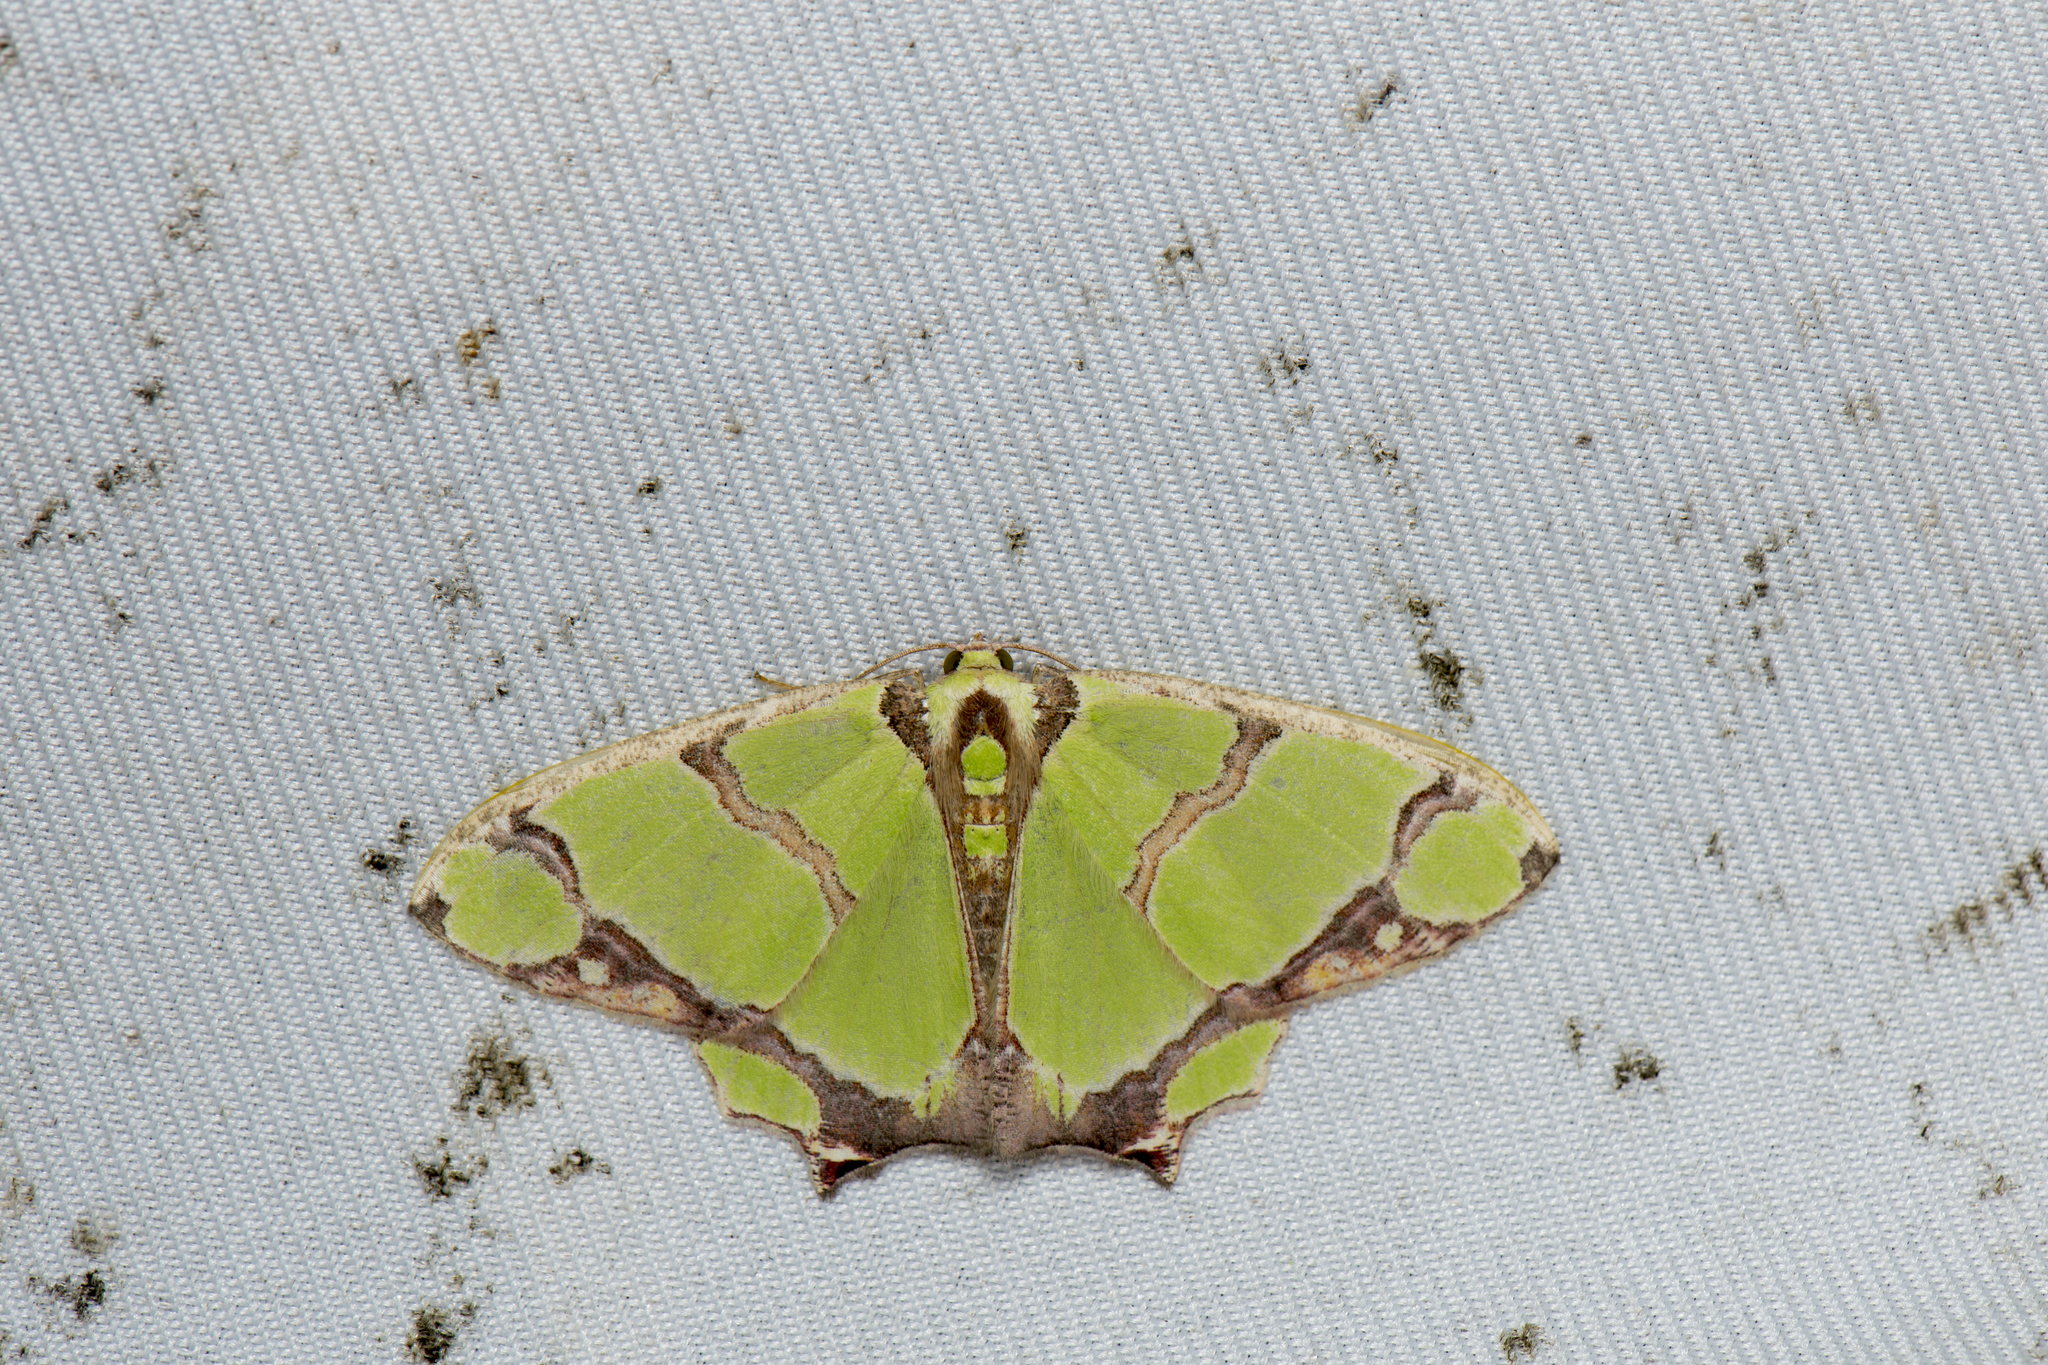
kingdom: Animalia
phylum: Arthropoda
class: Insecta
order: Lepidoptera
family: Geometridae
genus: Agathia
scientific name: Agathia magnificentia
